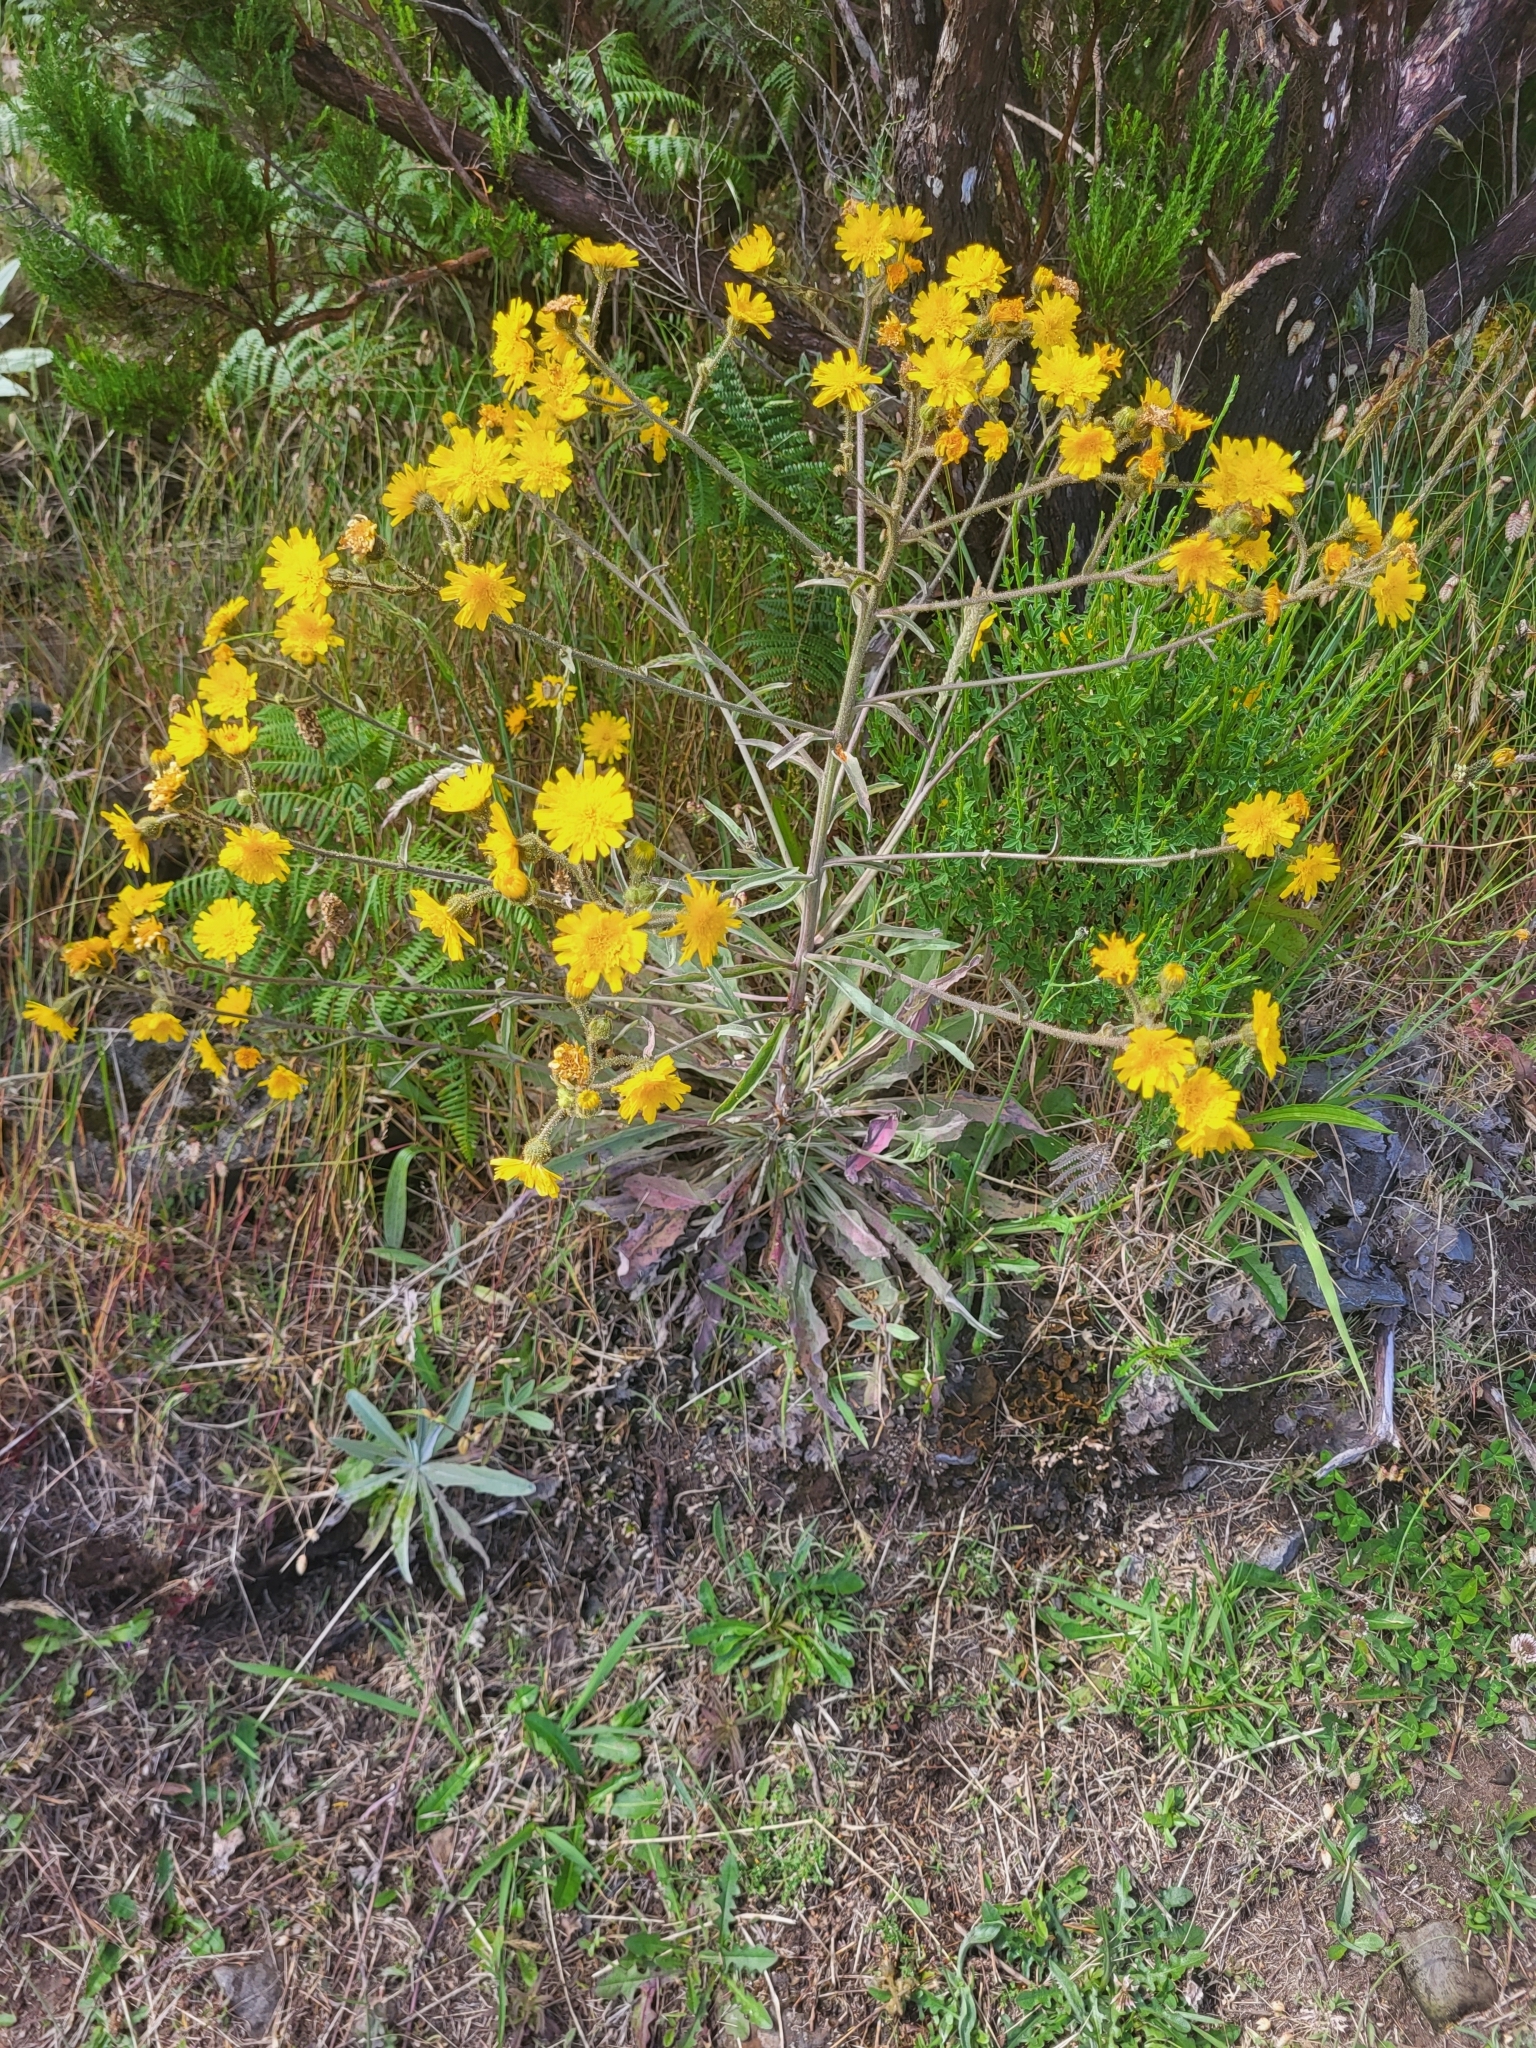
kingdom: Plantae
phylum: Tracheophyta
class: Magnoliopsida
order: Asterales
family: Asteraceae
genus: Andryala
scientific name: Andryala glandulosa
